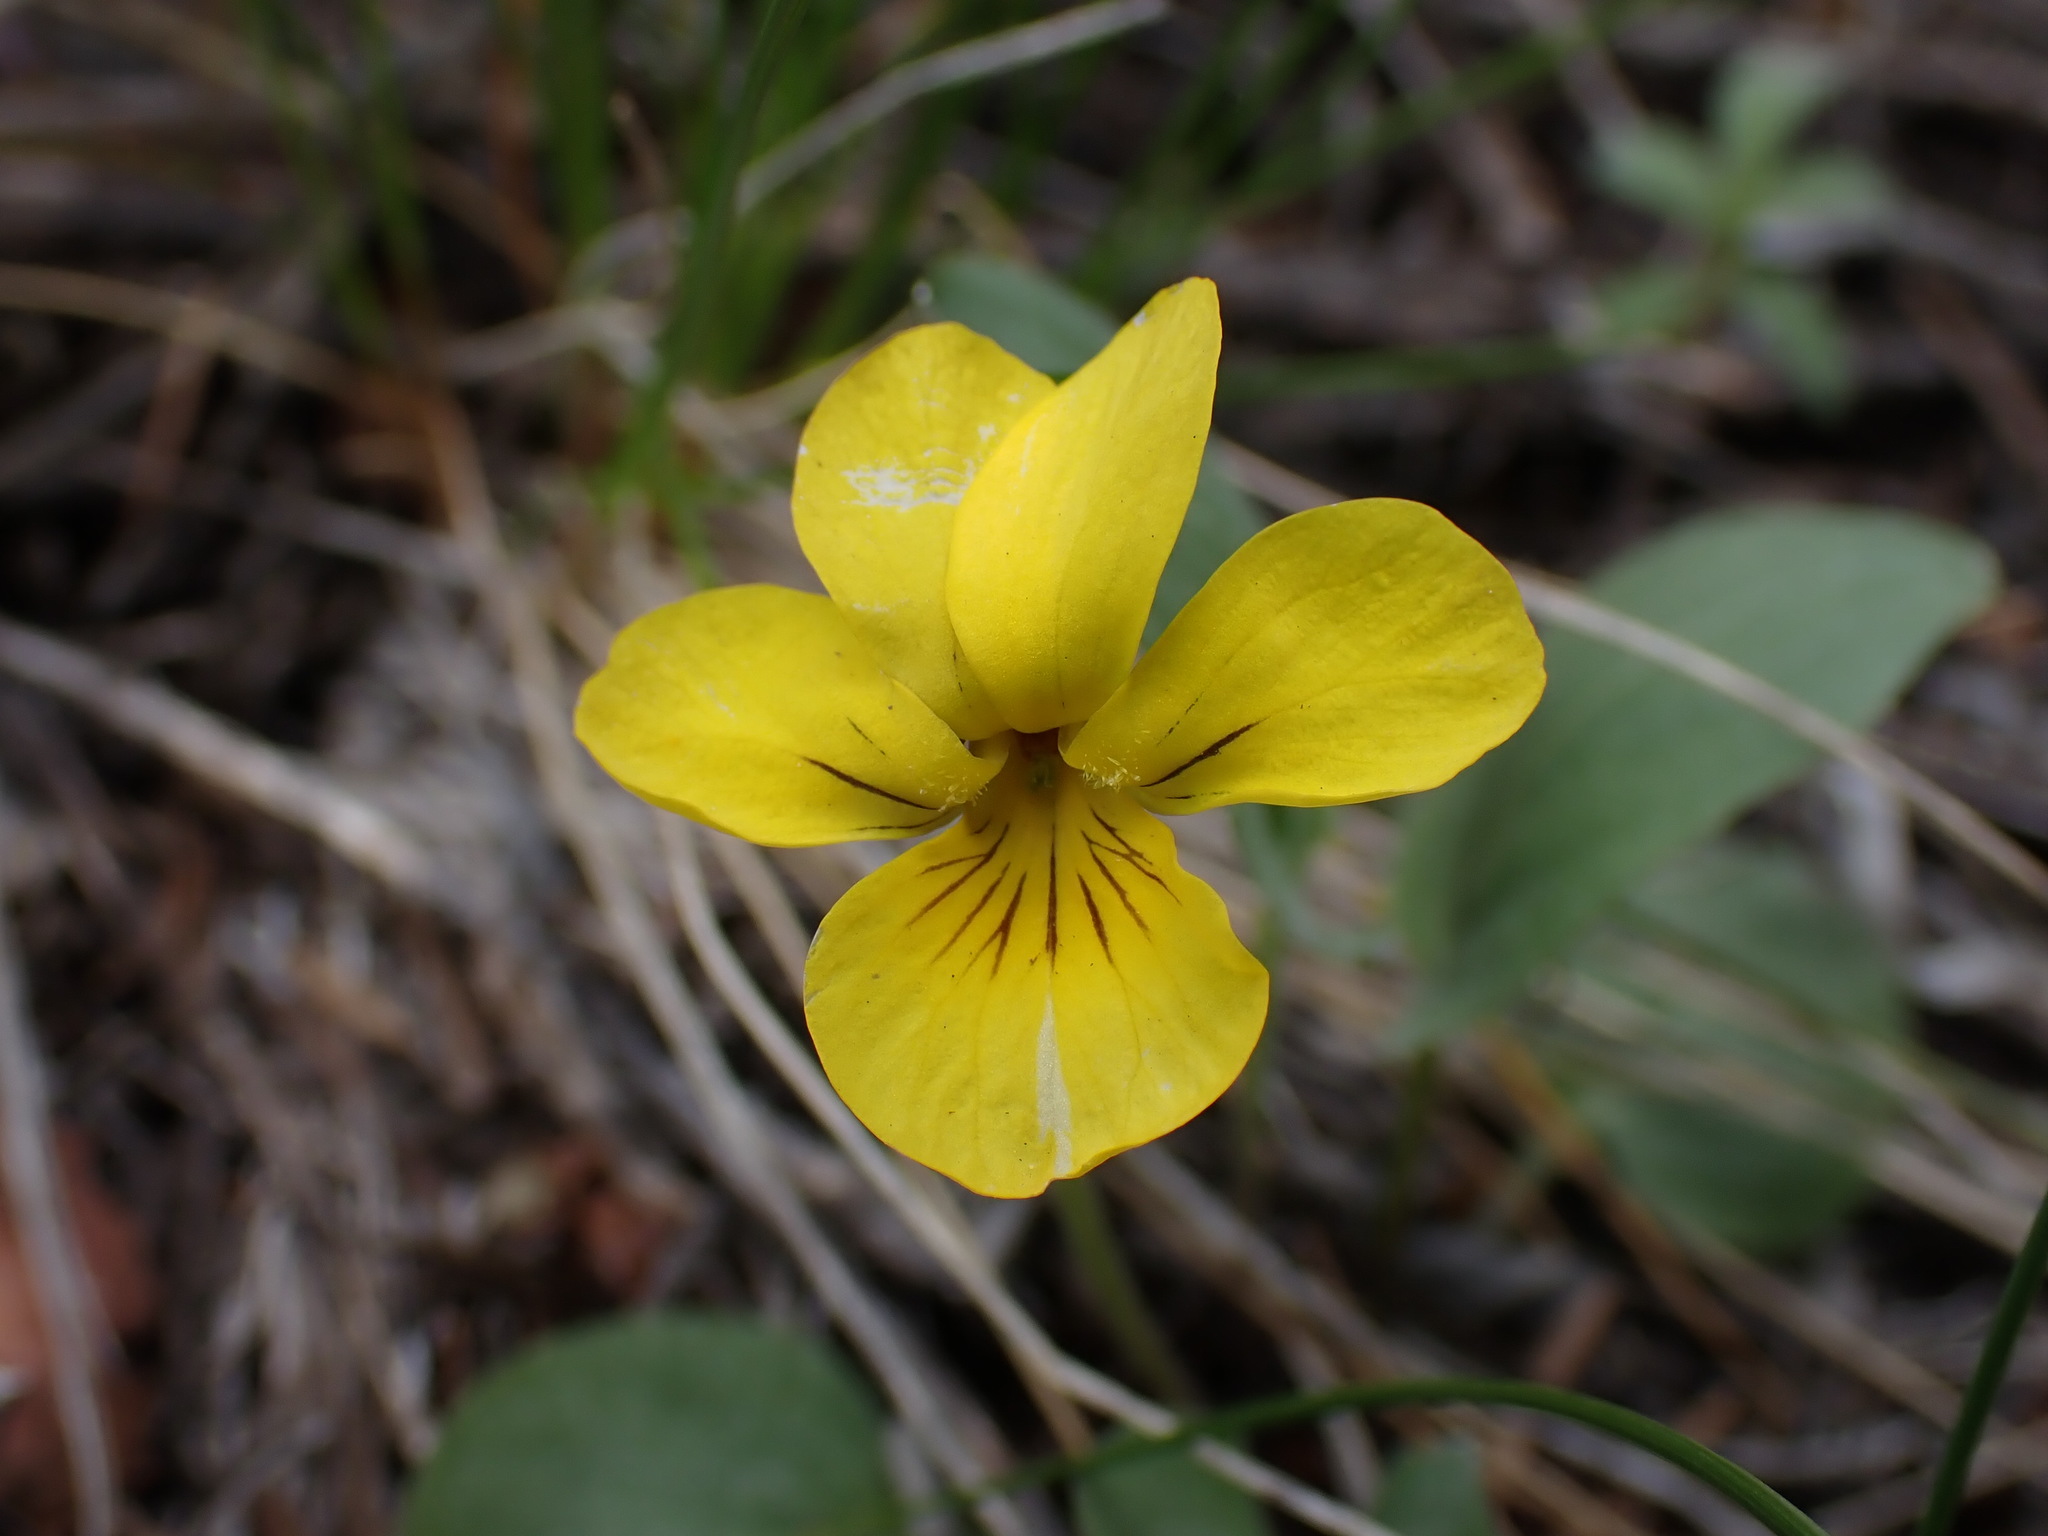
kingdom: Plantae
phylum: Tracheophyta
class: Magnoliopsida
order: Malpighiales
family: Violaceae
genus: Viola
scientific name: Viola vallicola
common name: Valley violet
